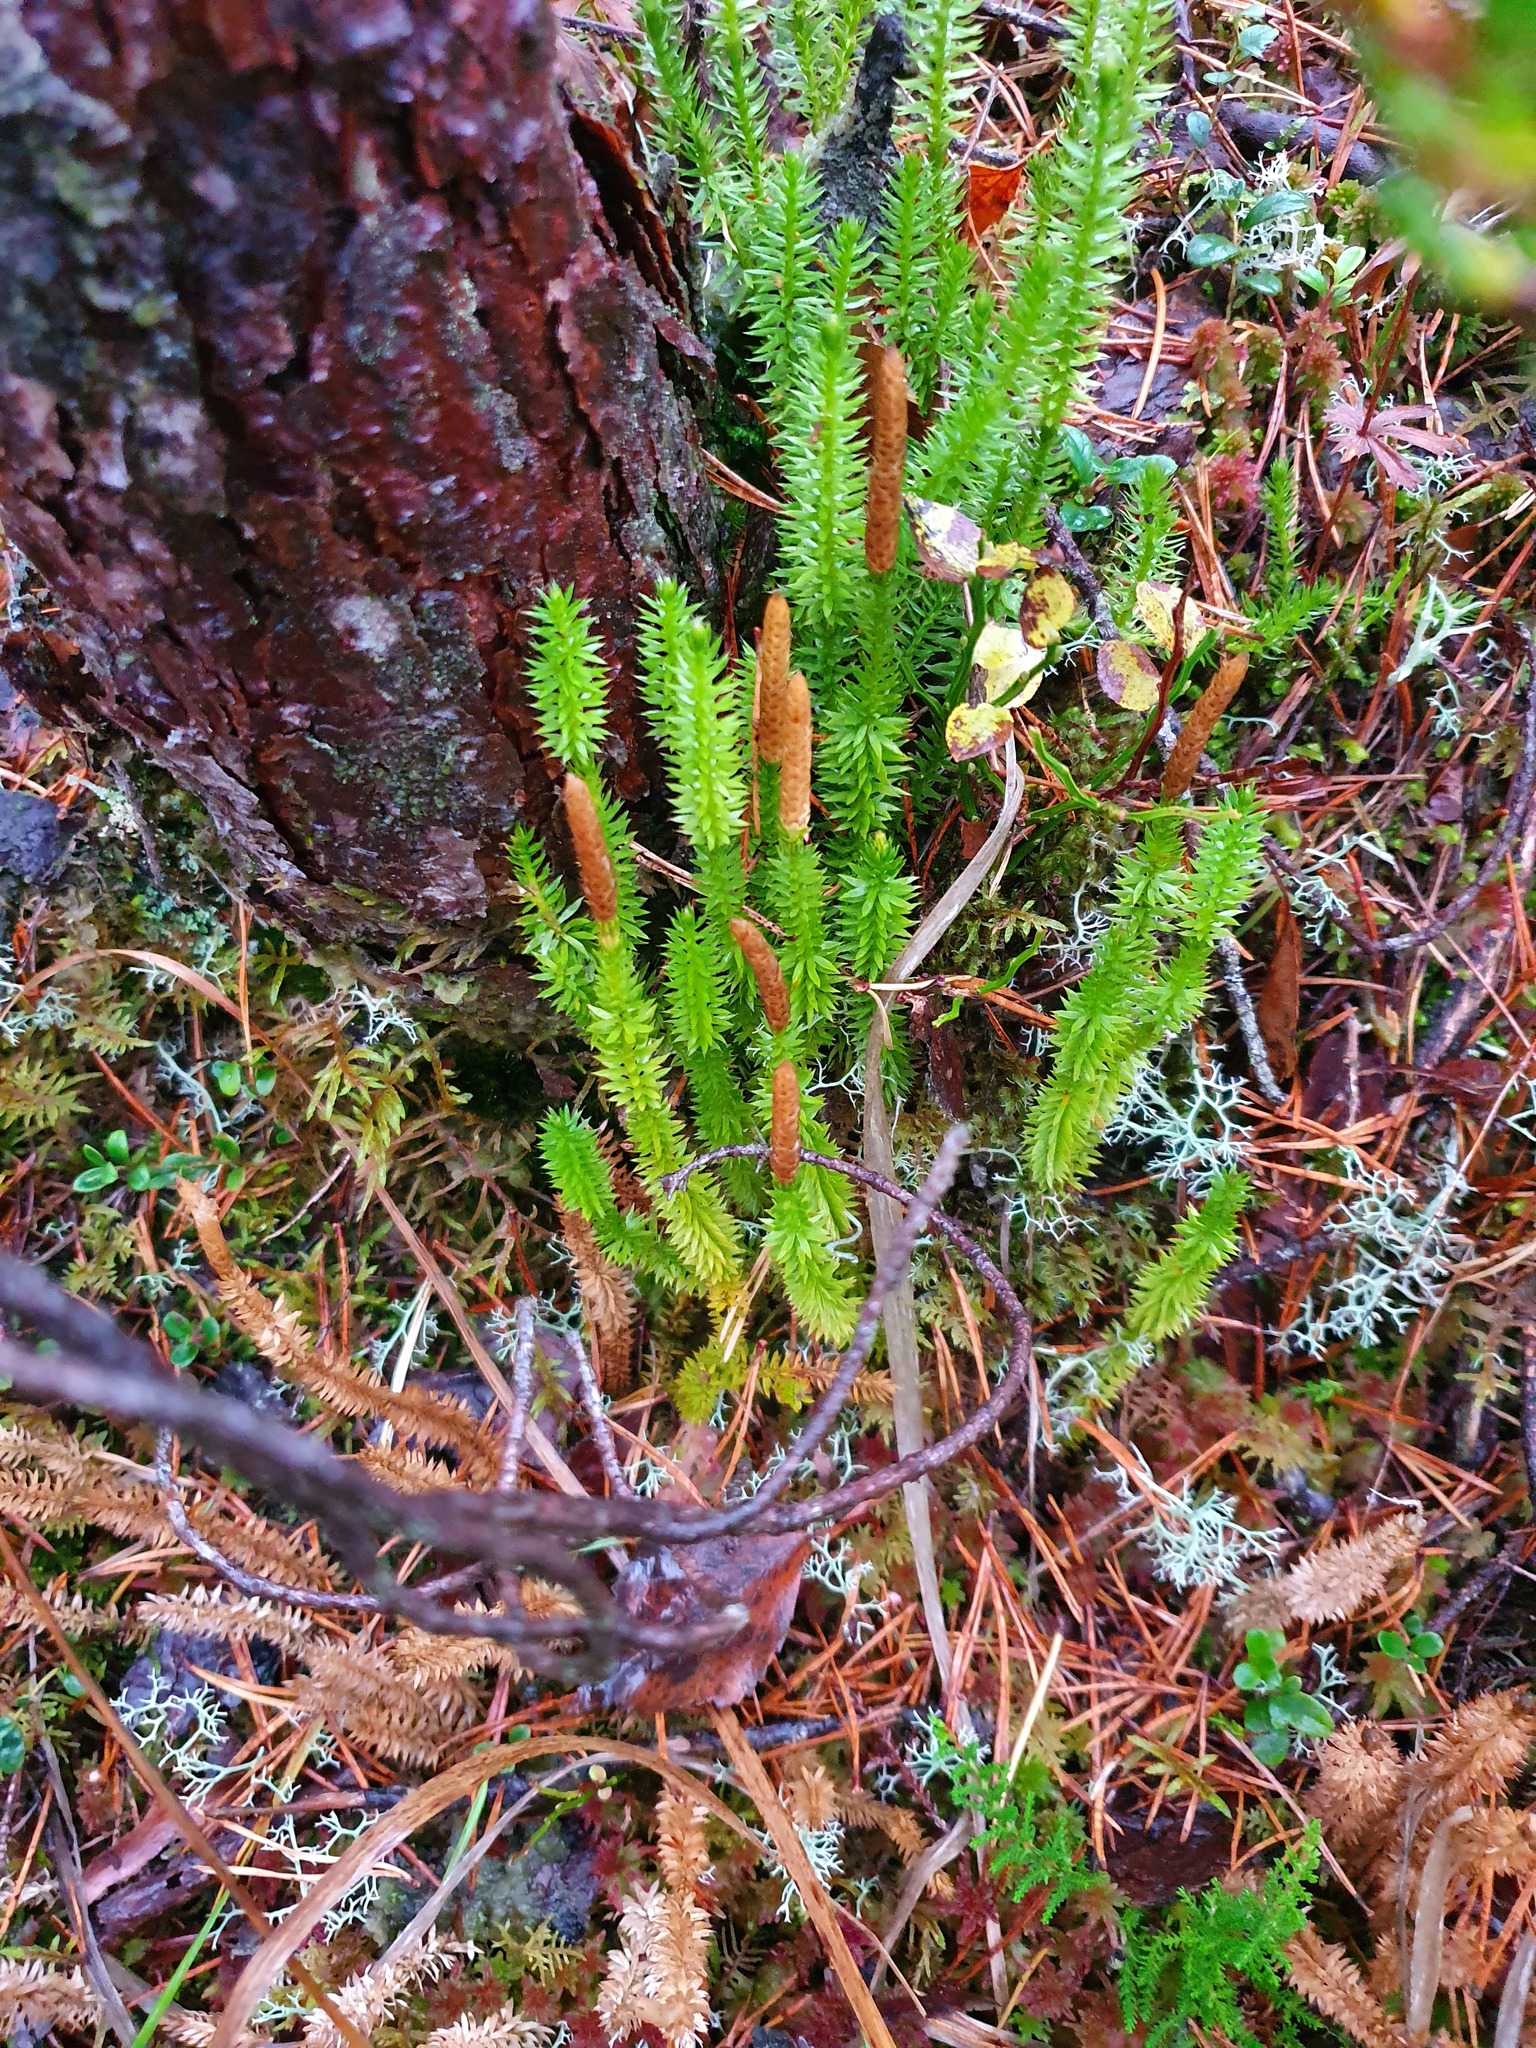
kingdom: Plantae
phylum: Tracheophyta
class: Lycopodiopsida
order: Lycopodiales
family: Lycopodiaceae
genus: Spinulum
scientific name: Spinulum annotinum
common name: Interrupted club-moss
